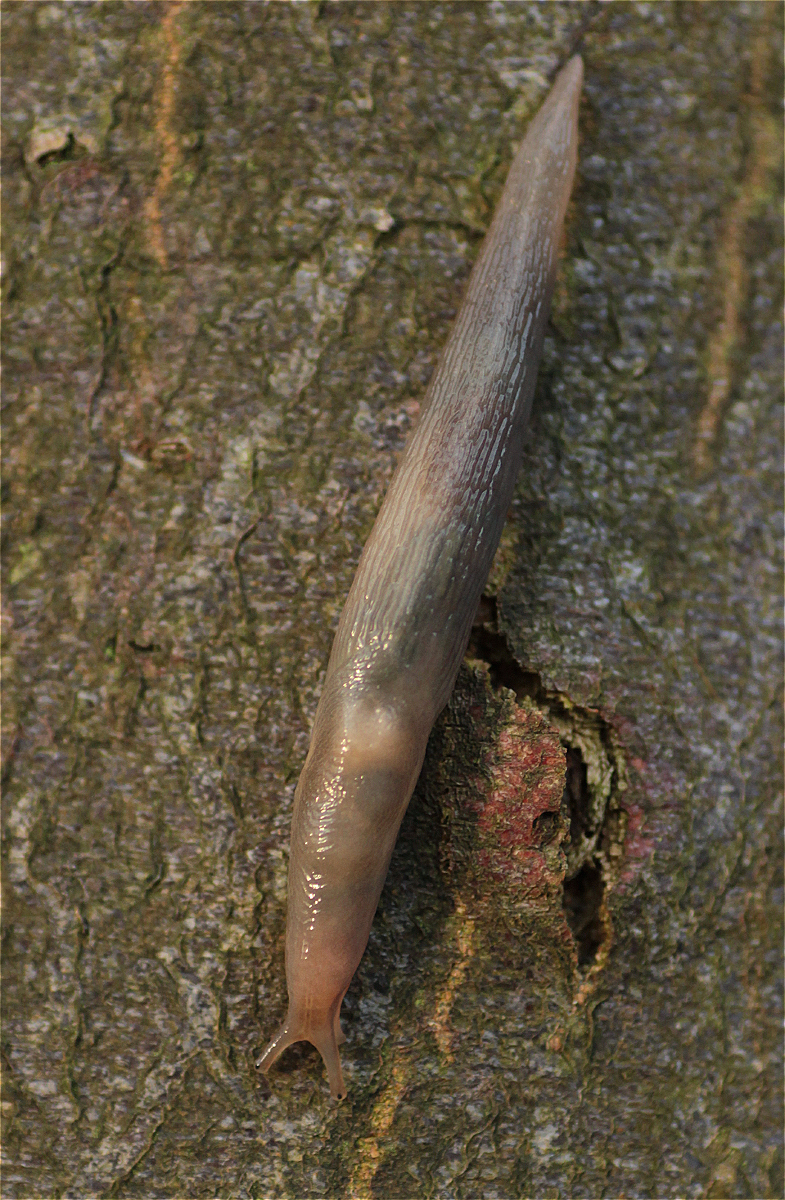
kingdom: Animalia
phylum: Mollusca
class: Gastropoda
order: Stylommatophora
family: Limacidae
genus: Lehmannia
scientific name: Lehmannia marginata
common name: Tree slug
